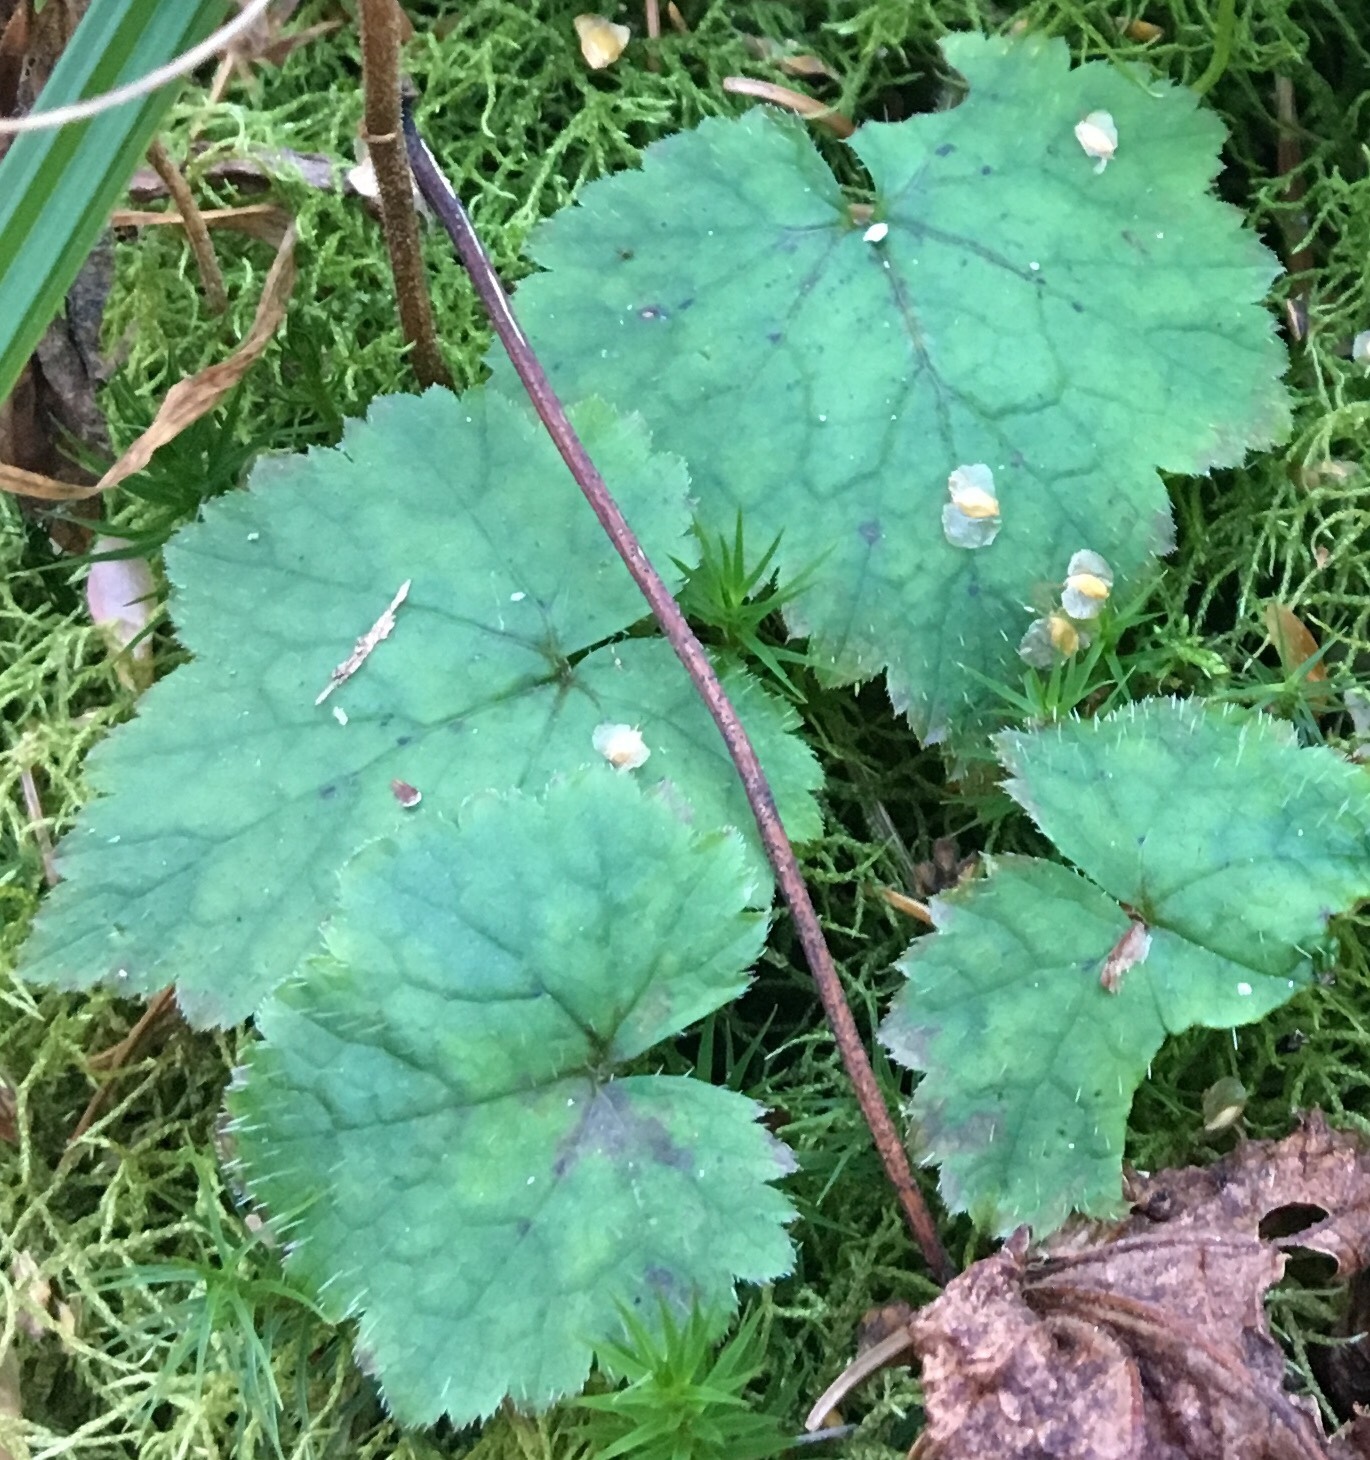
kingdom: Plantae
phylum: Tracheophyta
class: Magnoliopsida
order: Saxifragales
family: Saxifragaceae
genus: Tiarella
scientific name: Tiarella stolonifera
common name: Stoloniferous foamflower
